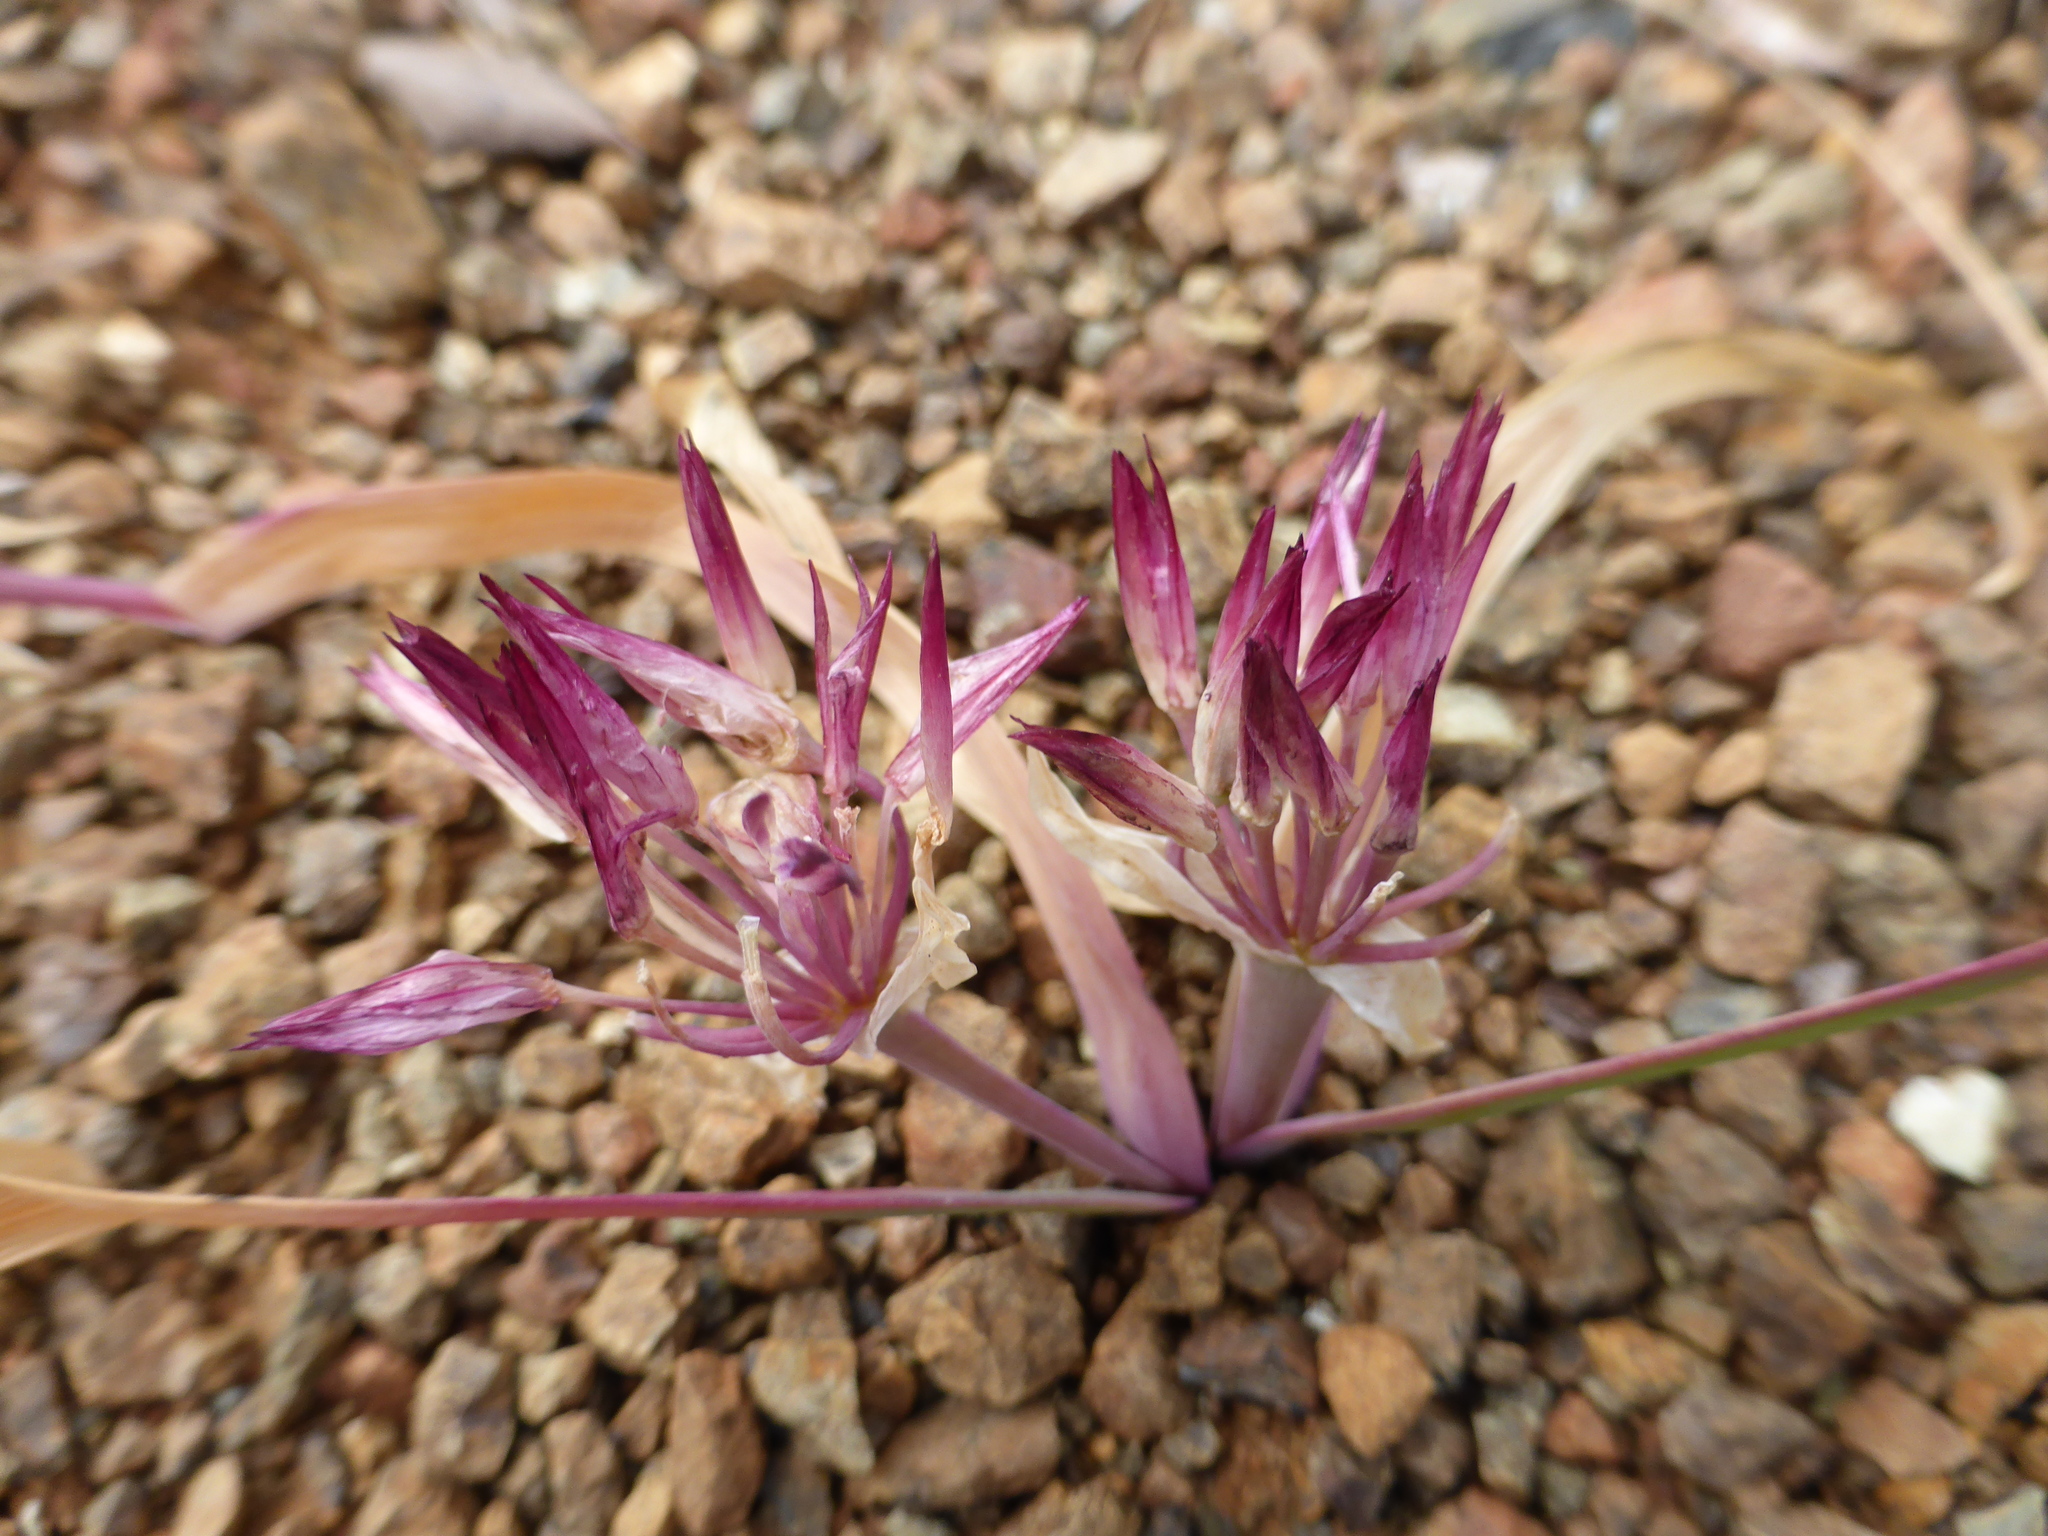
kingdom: Plantae
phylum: Tracheophyta
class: Liliopsida
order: Asparagales
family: Amaryllidaceae
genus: Allium
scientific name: Allium falcifolium
